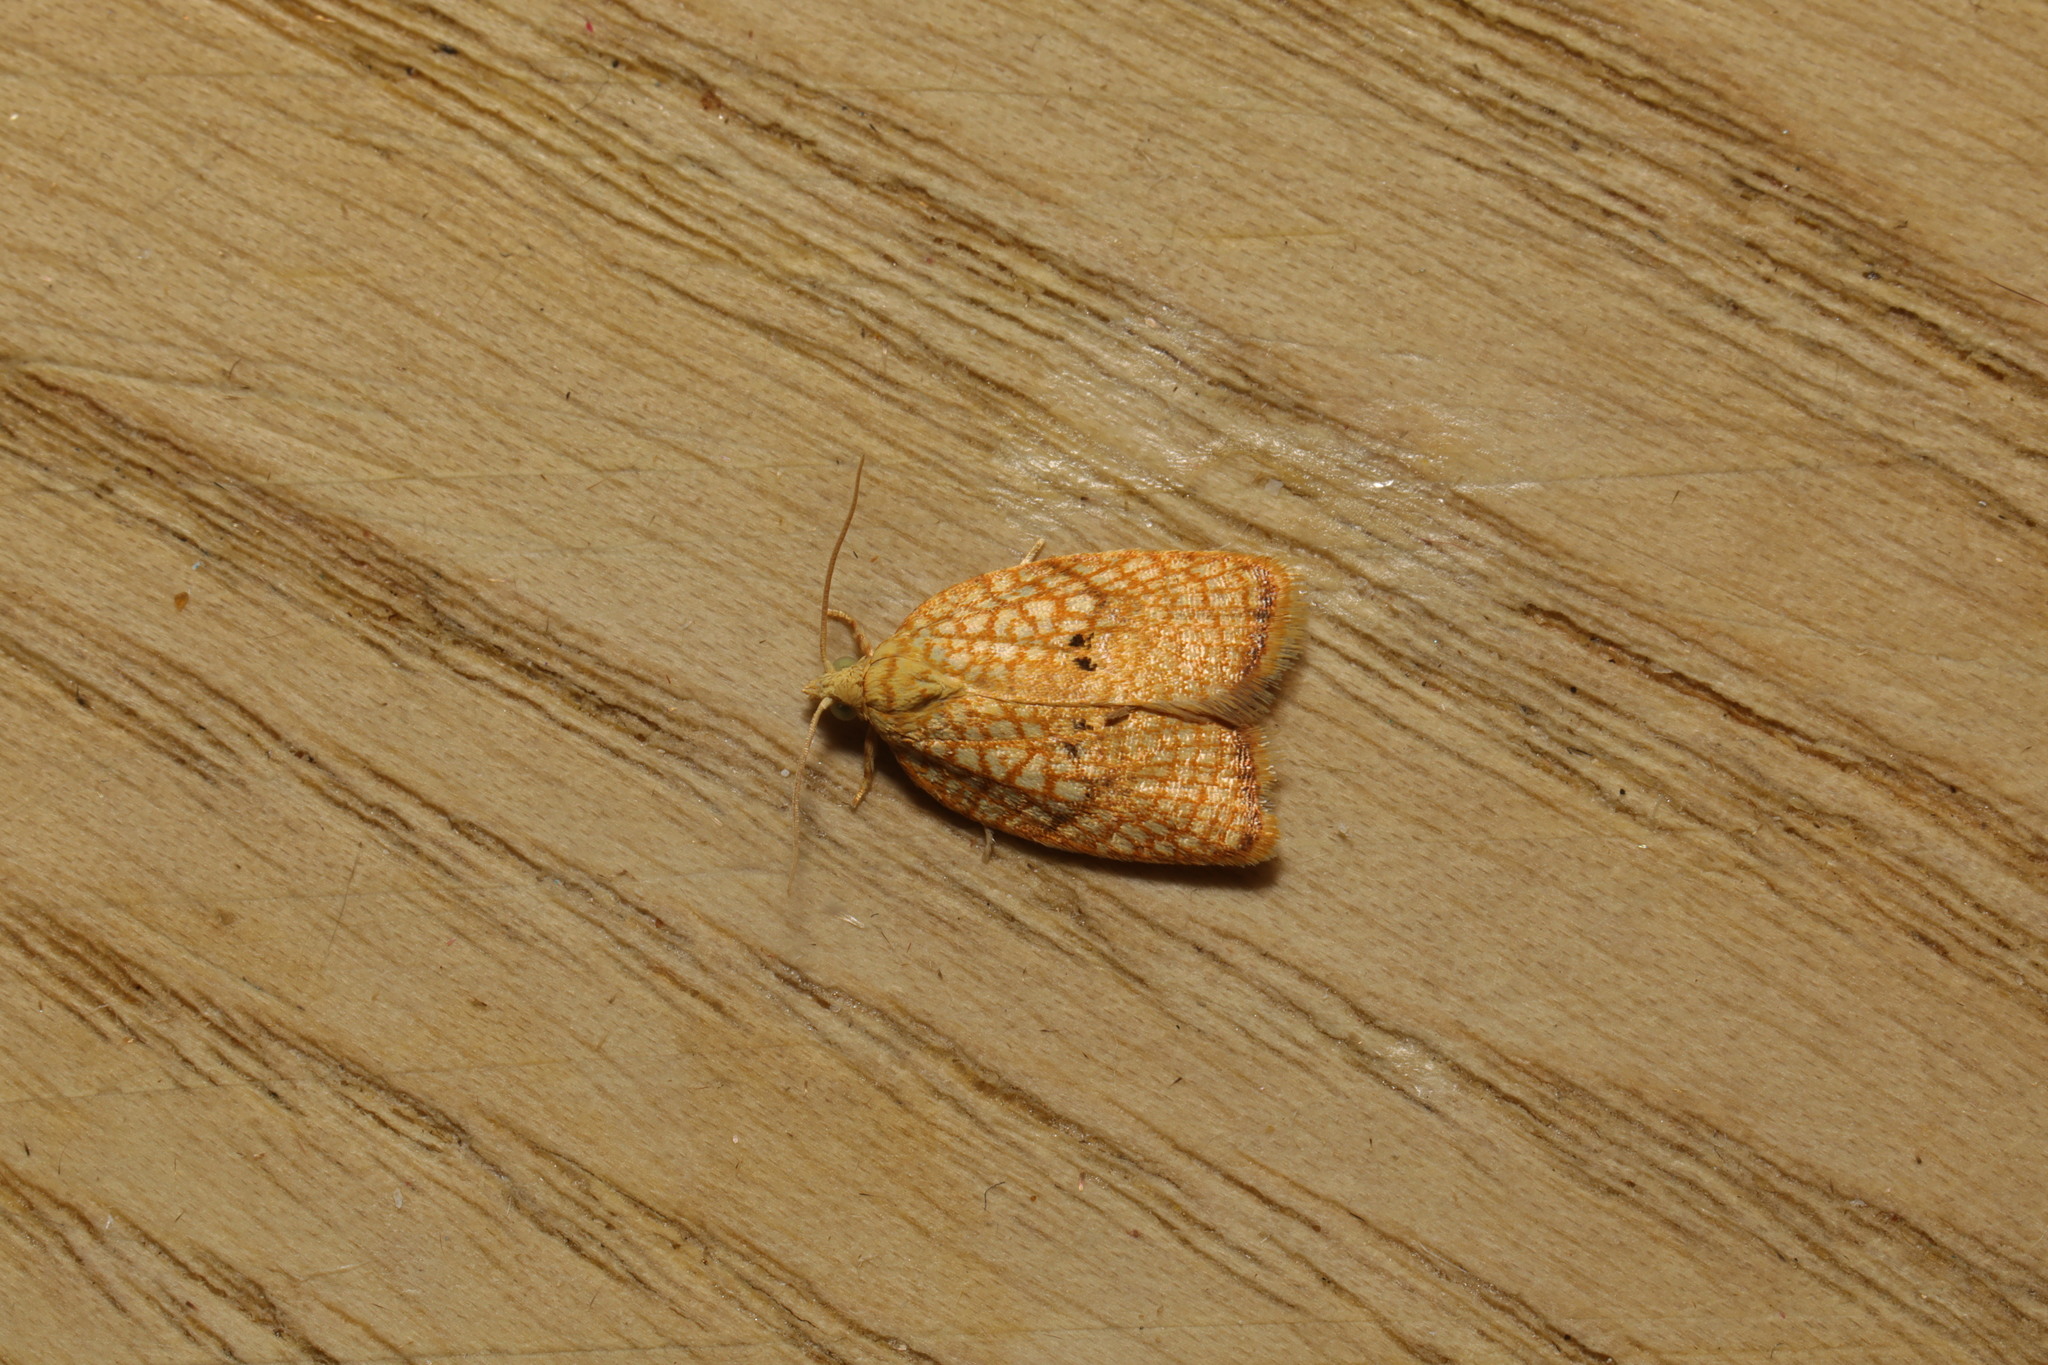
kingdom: Animalia
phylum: Arthropoda
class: Insecta
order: Lepidoptera
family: Tortricidae
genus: Acleris
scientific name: Acleris forsskaleana
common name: Maple button
